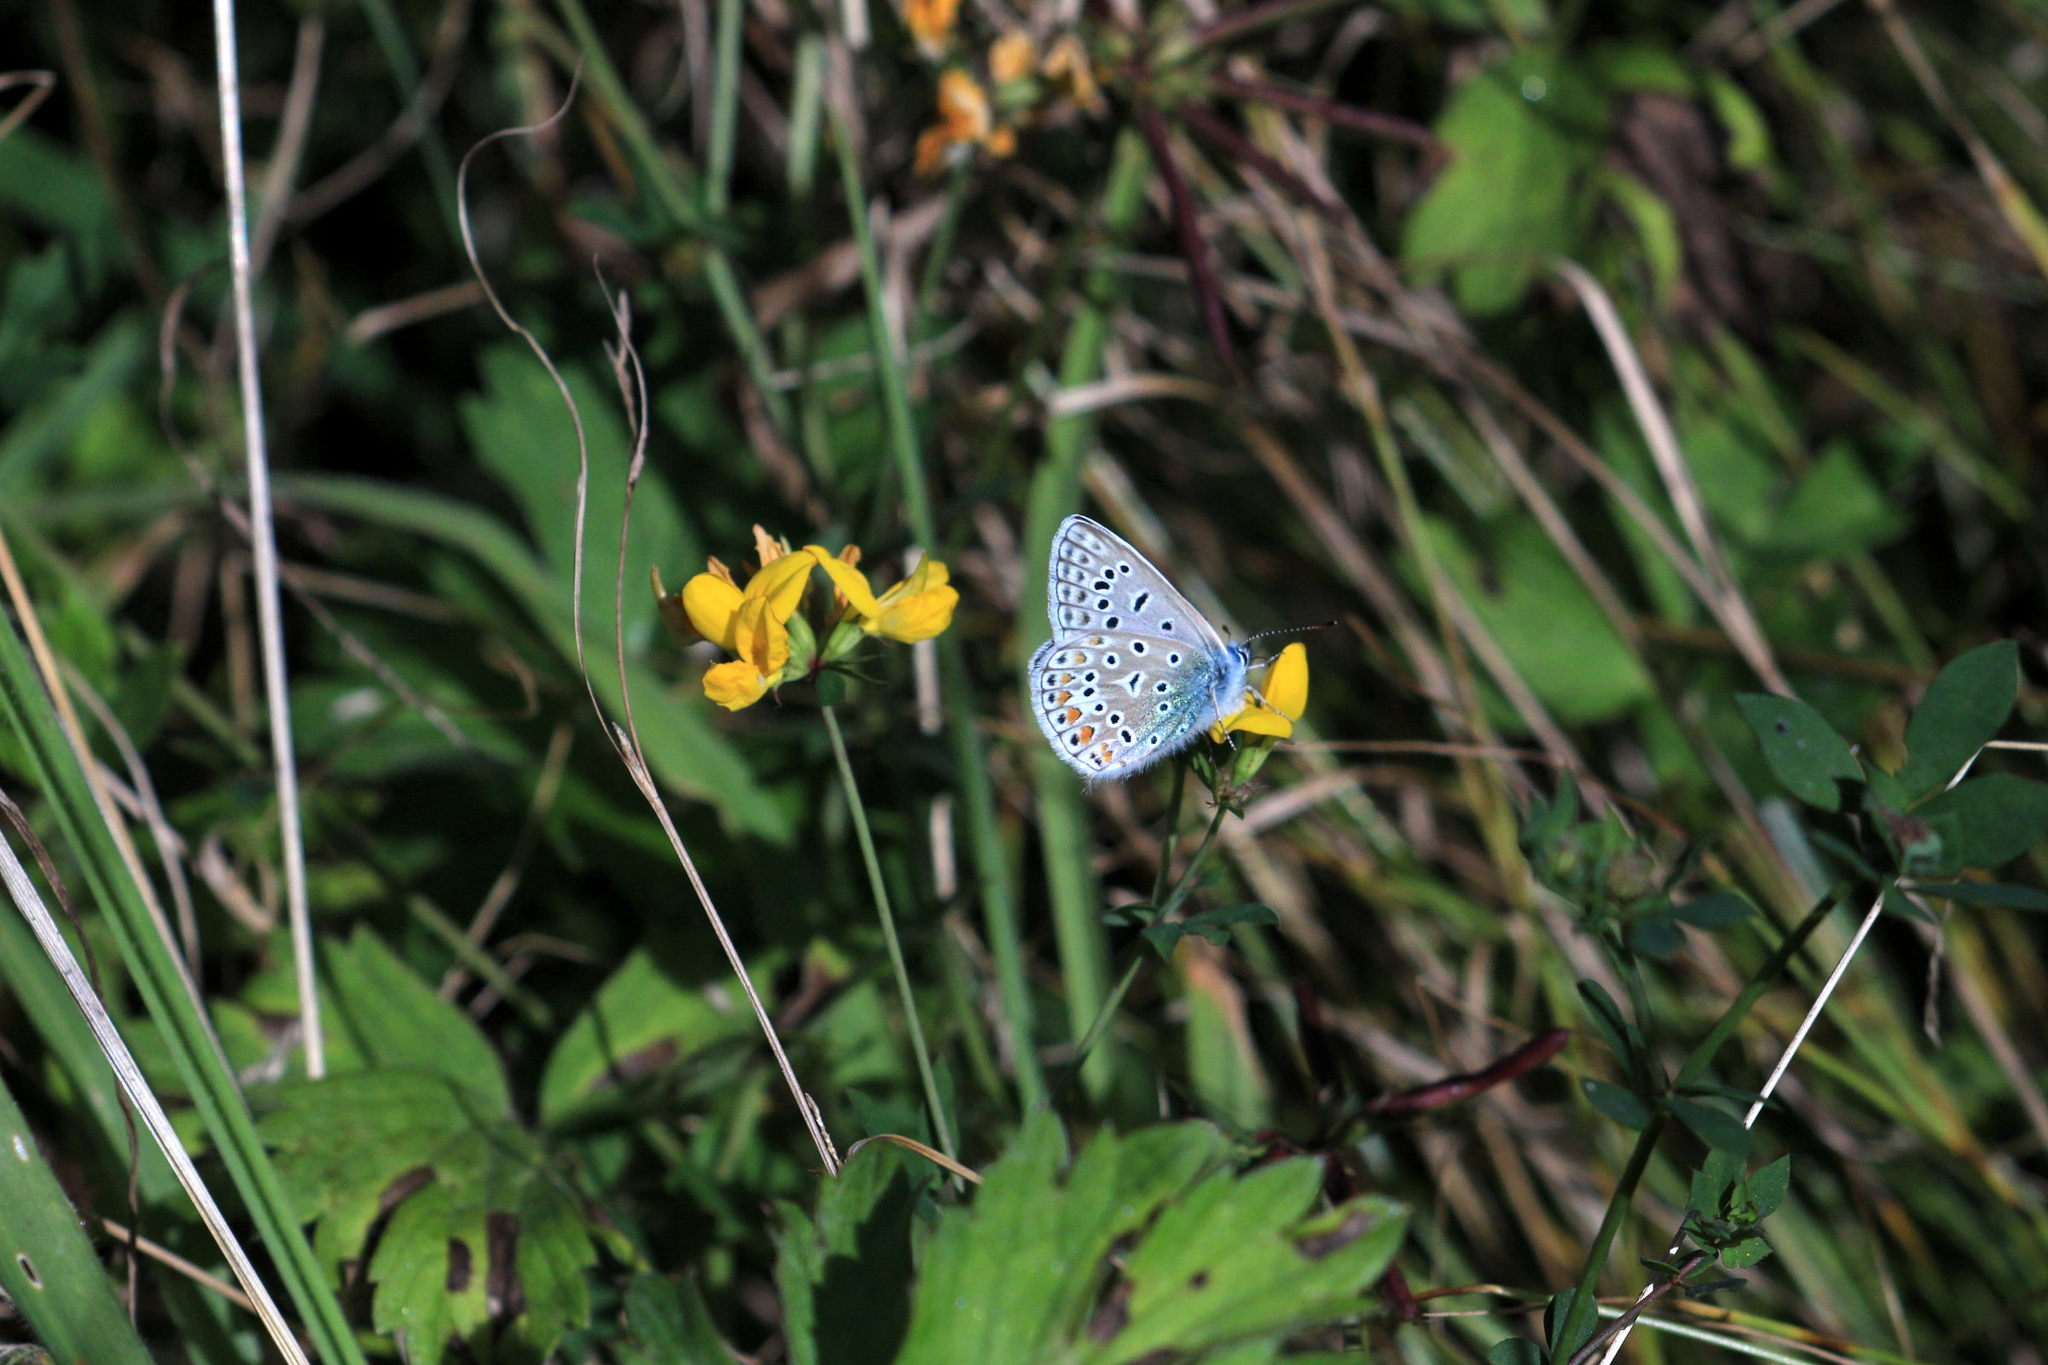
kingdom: Animalia
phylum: Arthropoda
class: Insecta
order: Lepidoptera
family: Lycaenidae
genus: Polyommatus
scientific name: Polyommatus icarus
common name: Common blue
